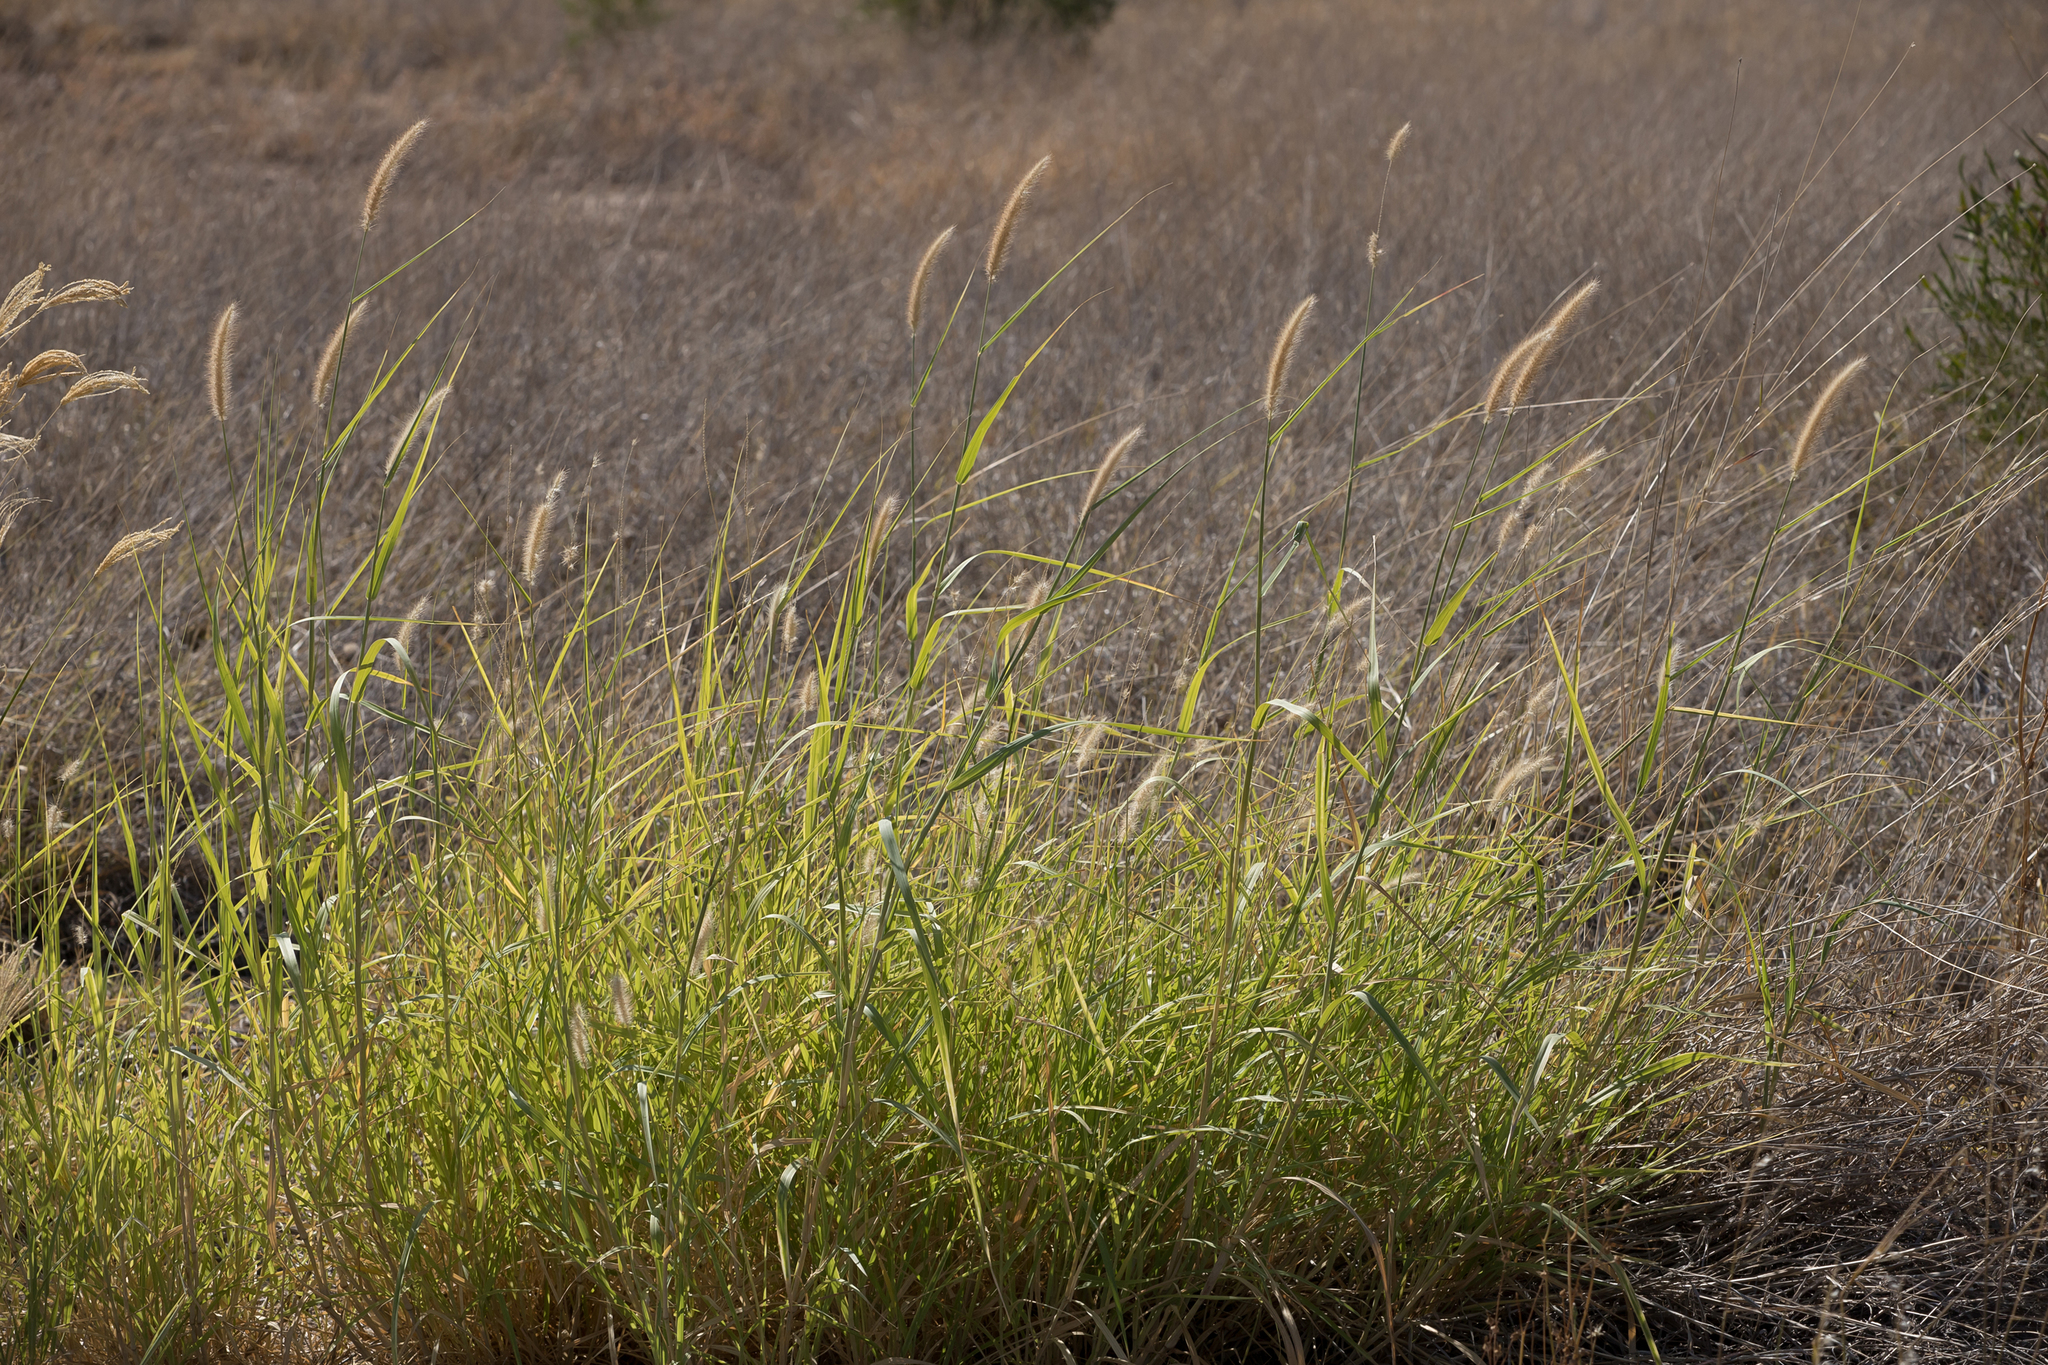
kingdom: Plantae
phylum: Tracheophyta
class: Liliopsida
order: Poales
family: Poaceae
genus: Cenchrus
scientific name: Cenchrus ciliaris
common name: Buffelgrass
